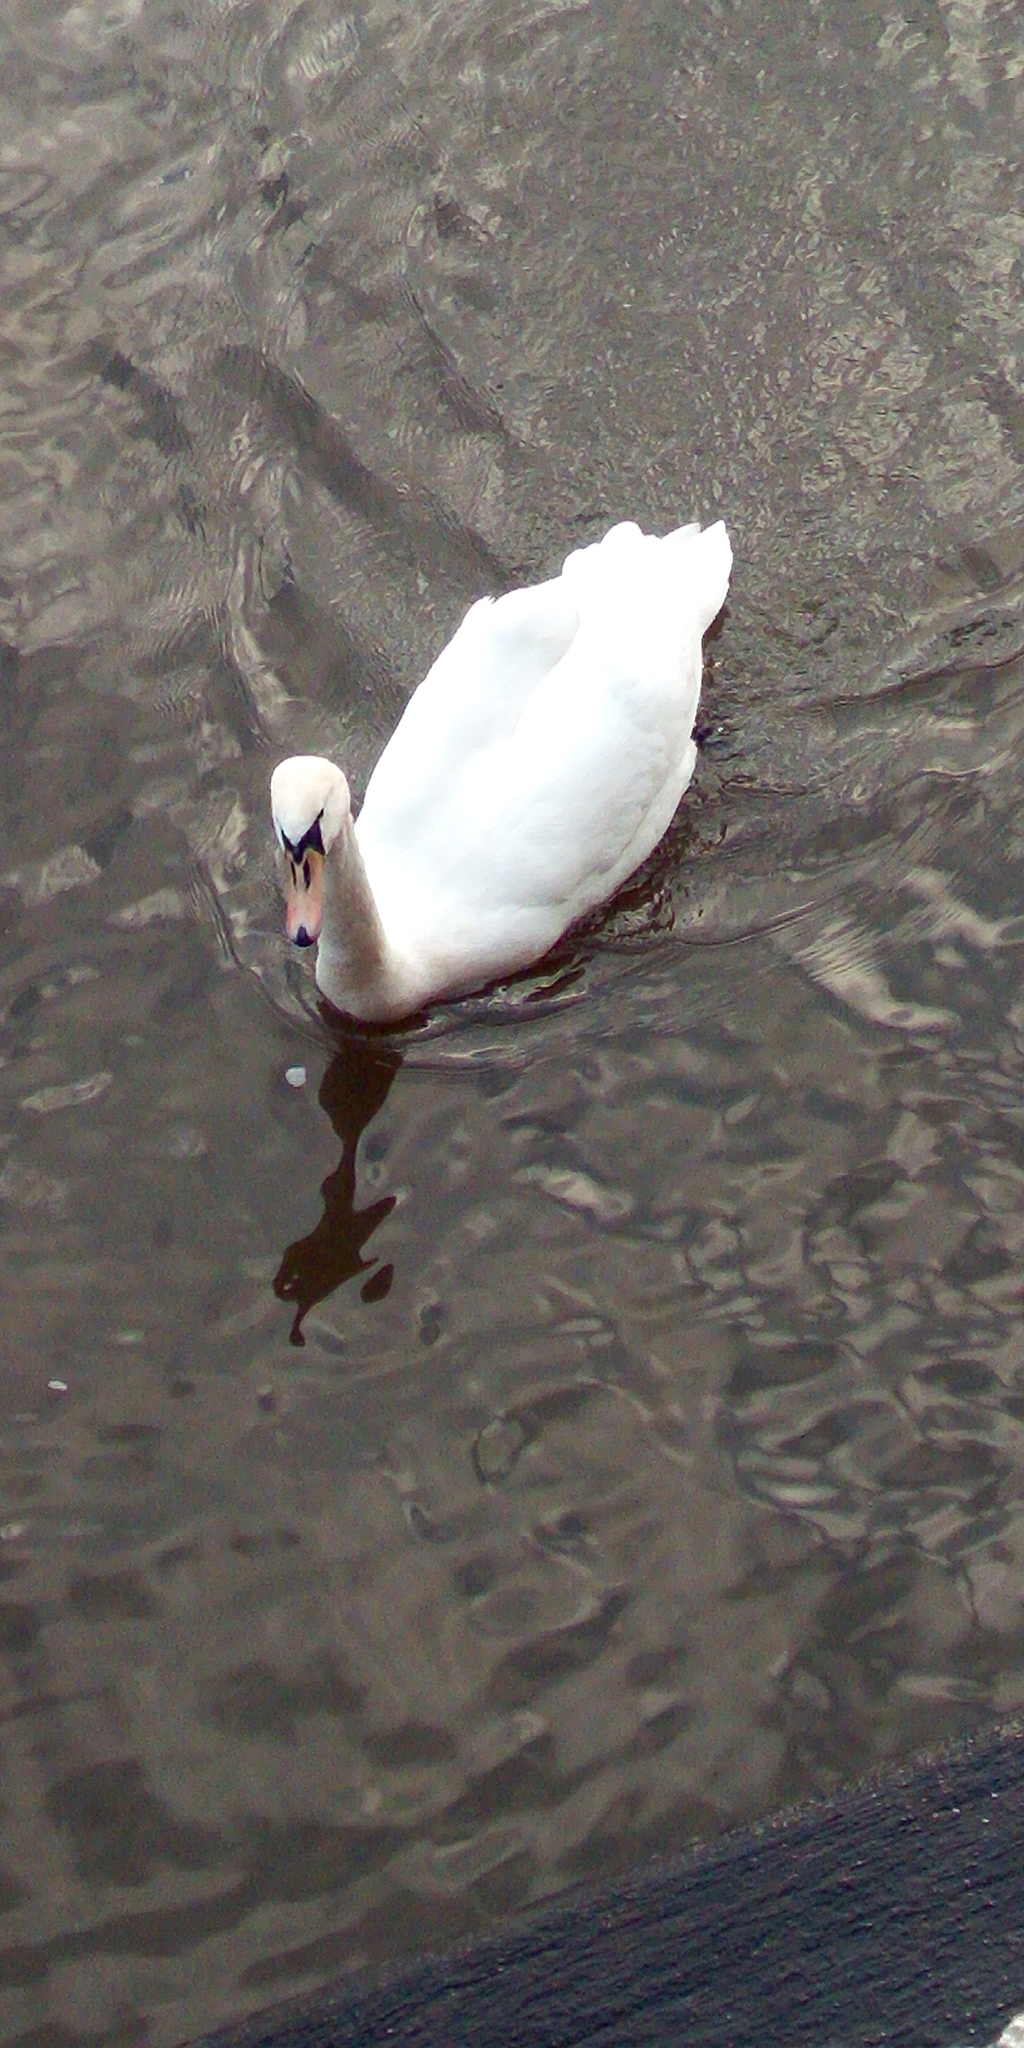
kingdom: Animalia
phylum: Chordata
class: Aves
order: Anseriformes
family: Anatidae
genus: Cygnus
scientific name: Cygnus olor
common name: Mute swan
